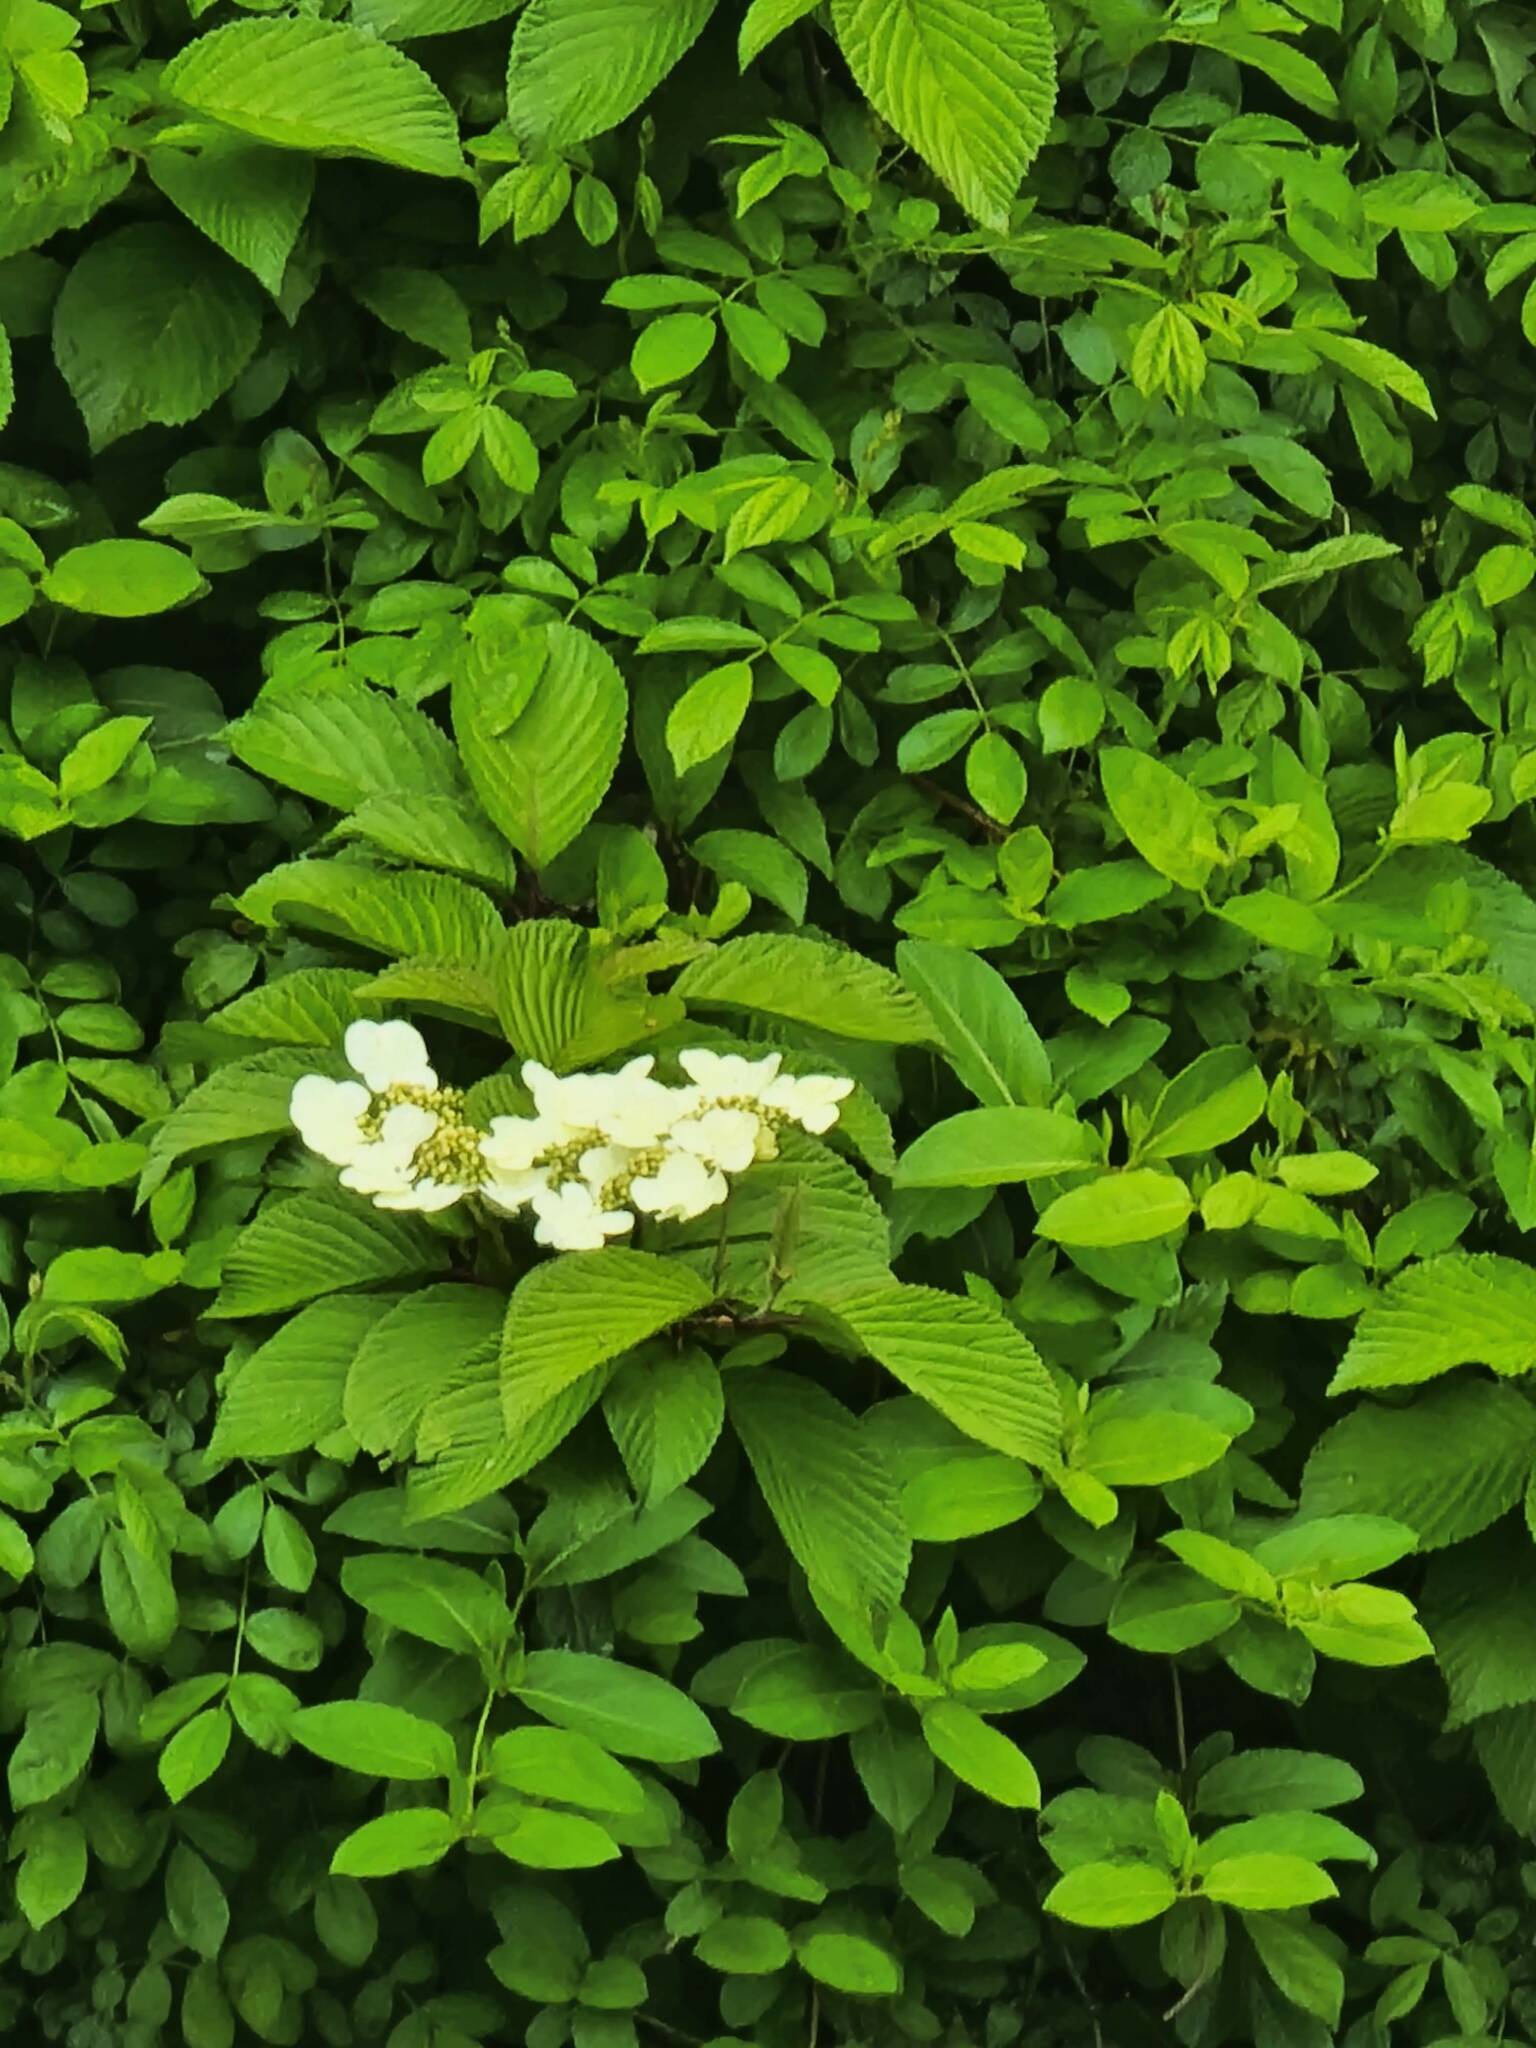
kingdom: Plantae
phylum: Tracheophyta
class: Magnoliopsida
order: Dipsacales
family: Viburnaceae
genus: Viburnum
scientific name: Viburnum plicatum
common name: Japanese snowball
